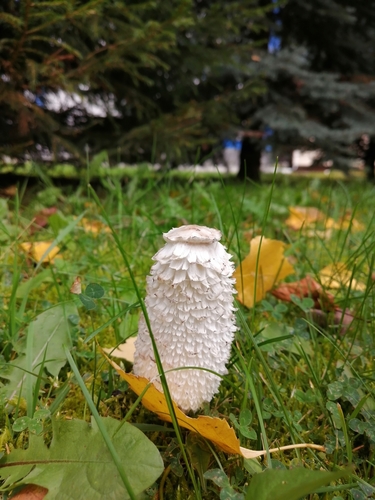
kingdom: Fungi
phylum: Basidiomycota
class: Agaricomycetes
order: Agaricales
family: Agaricaceae
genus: Coprinus
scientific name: Coprinus comatus
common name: Lawyer's wig
